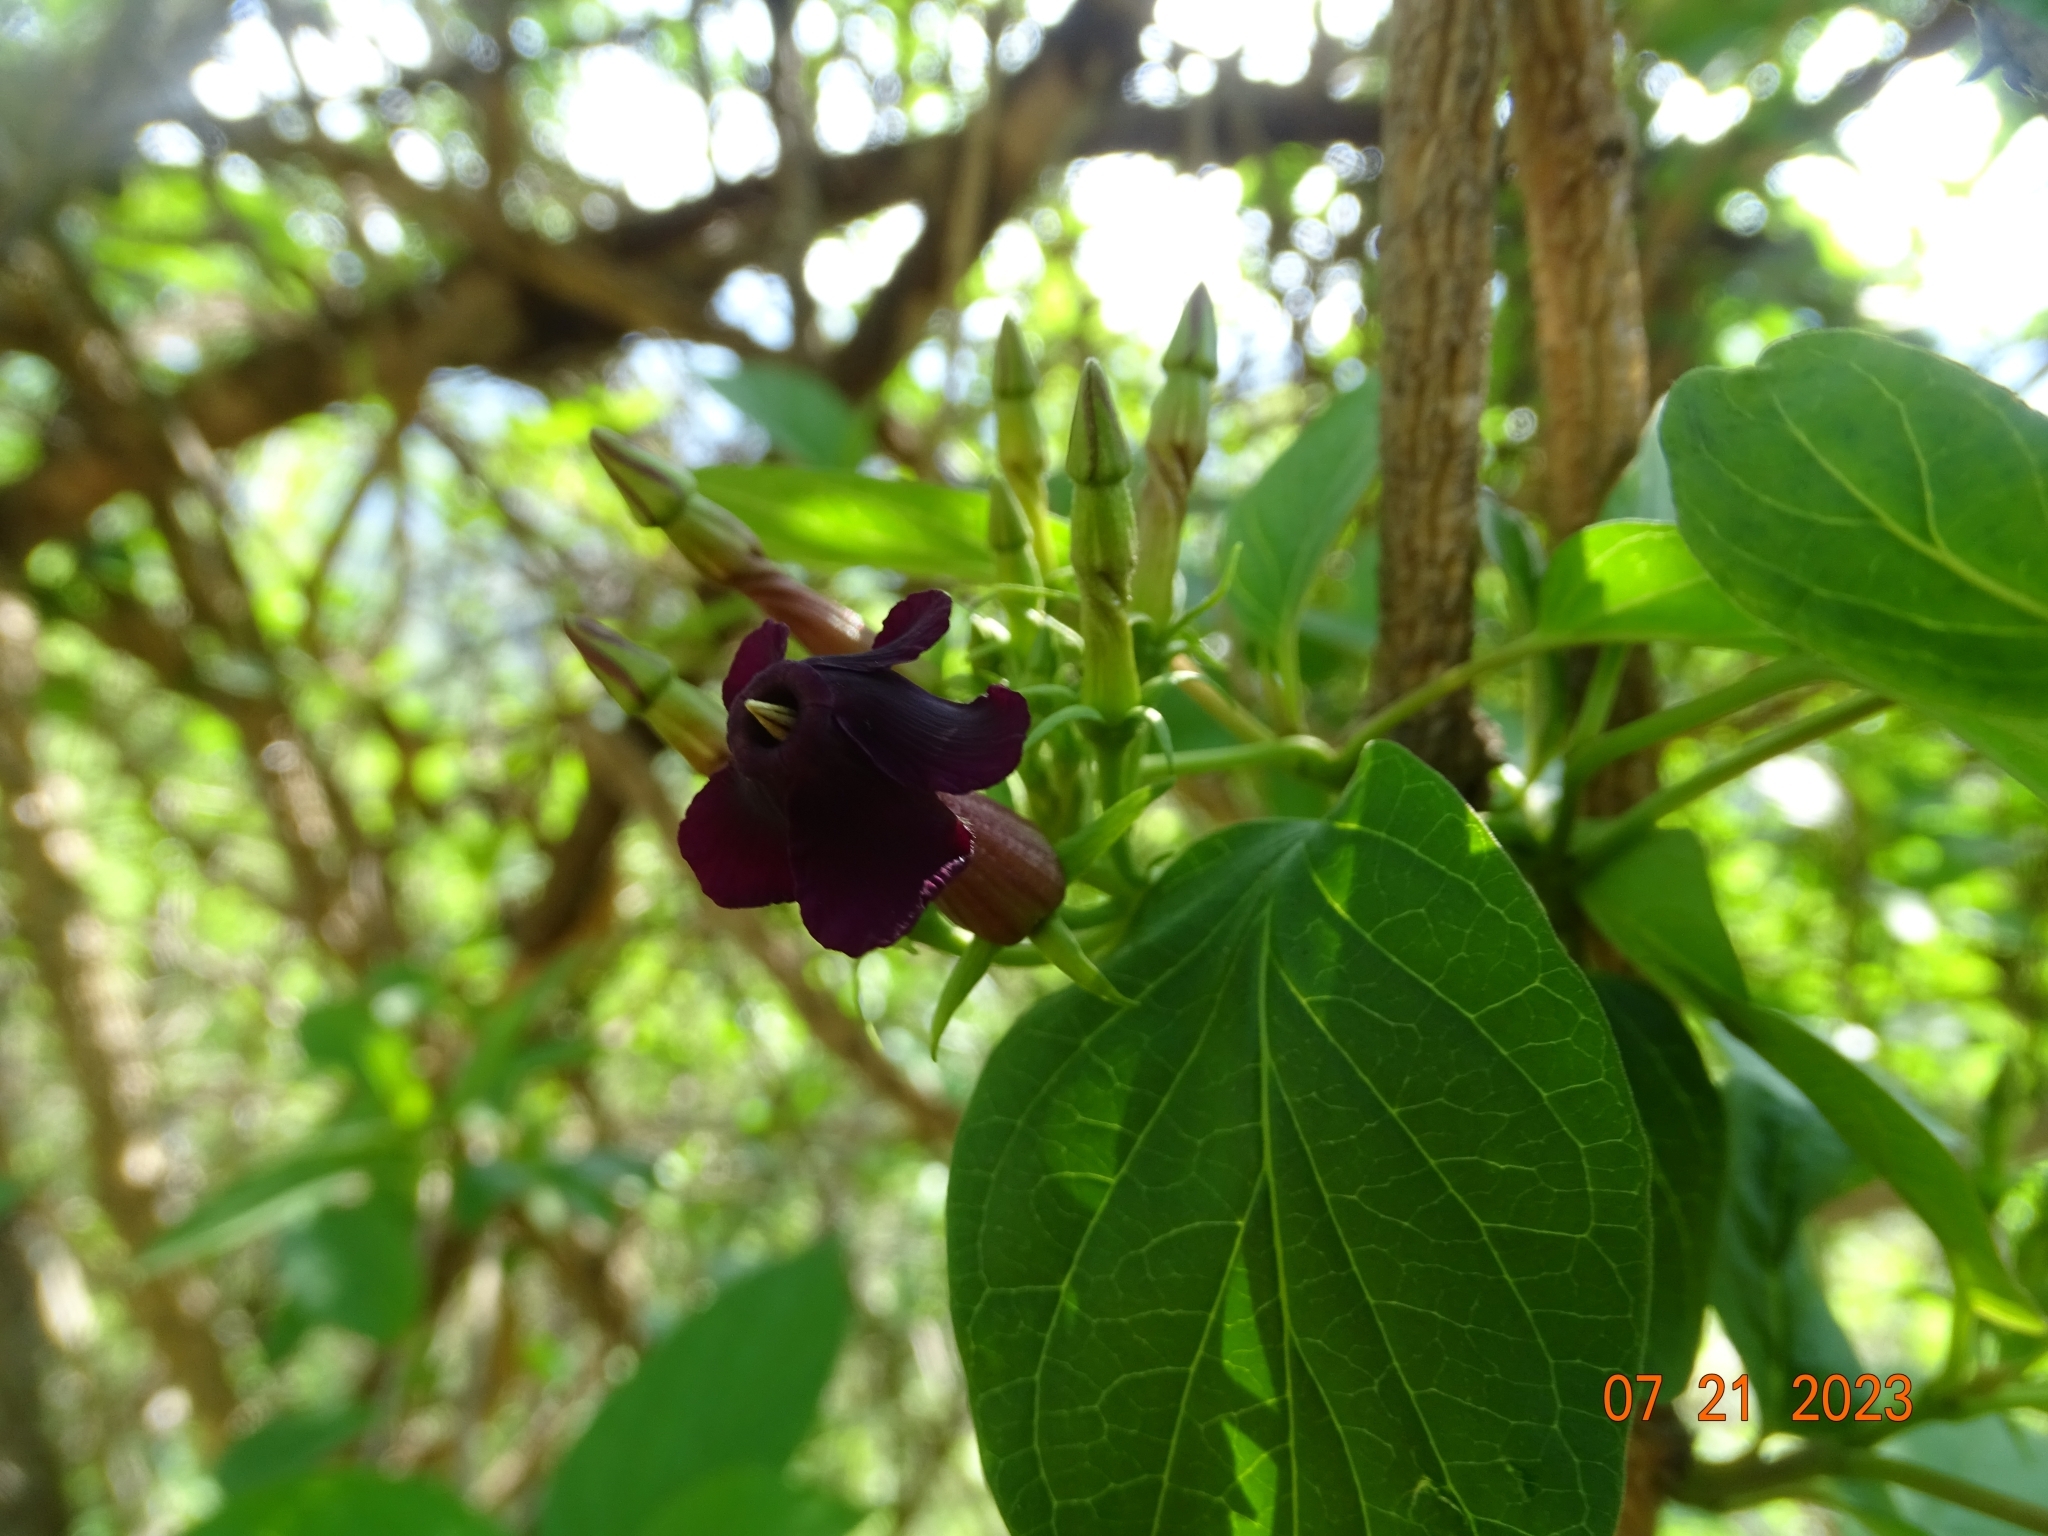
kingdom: Plantae
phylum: Tracheophyta
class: Magnoliopsida
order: Gentianales
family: Apocynaceae
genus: Laubertia
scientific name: Laubertia contorta
